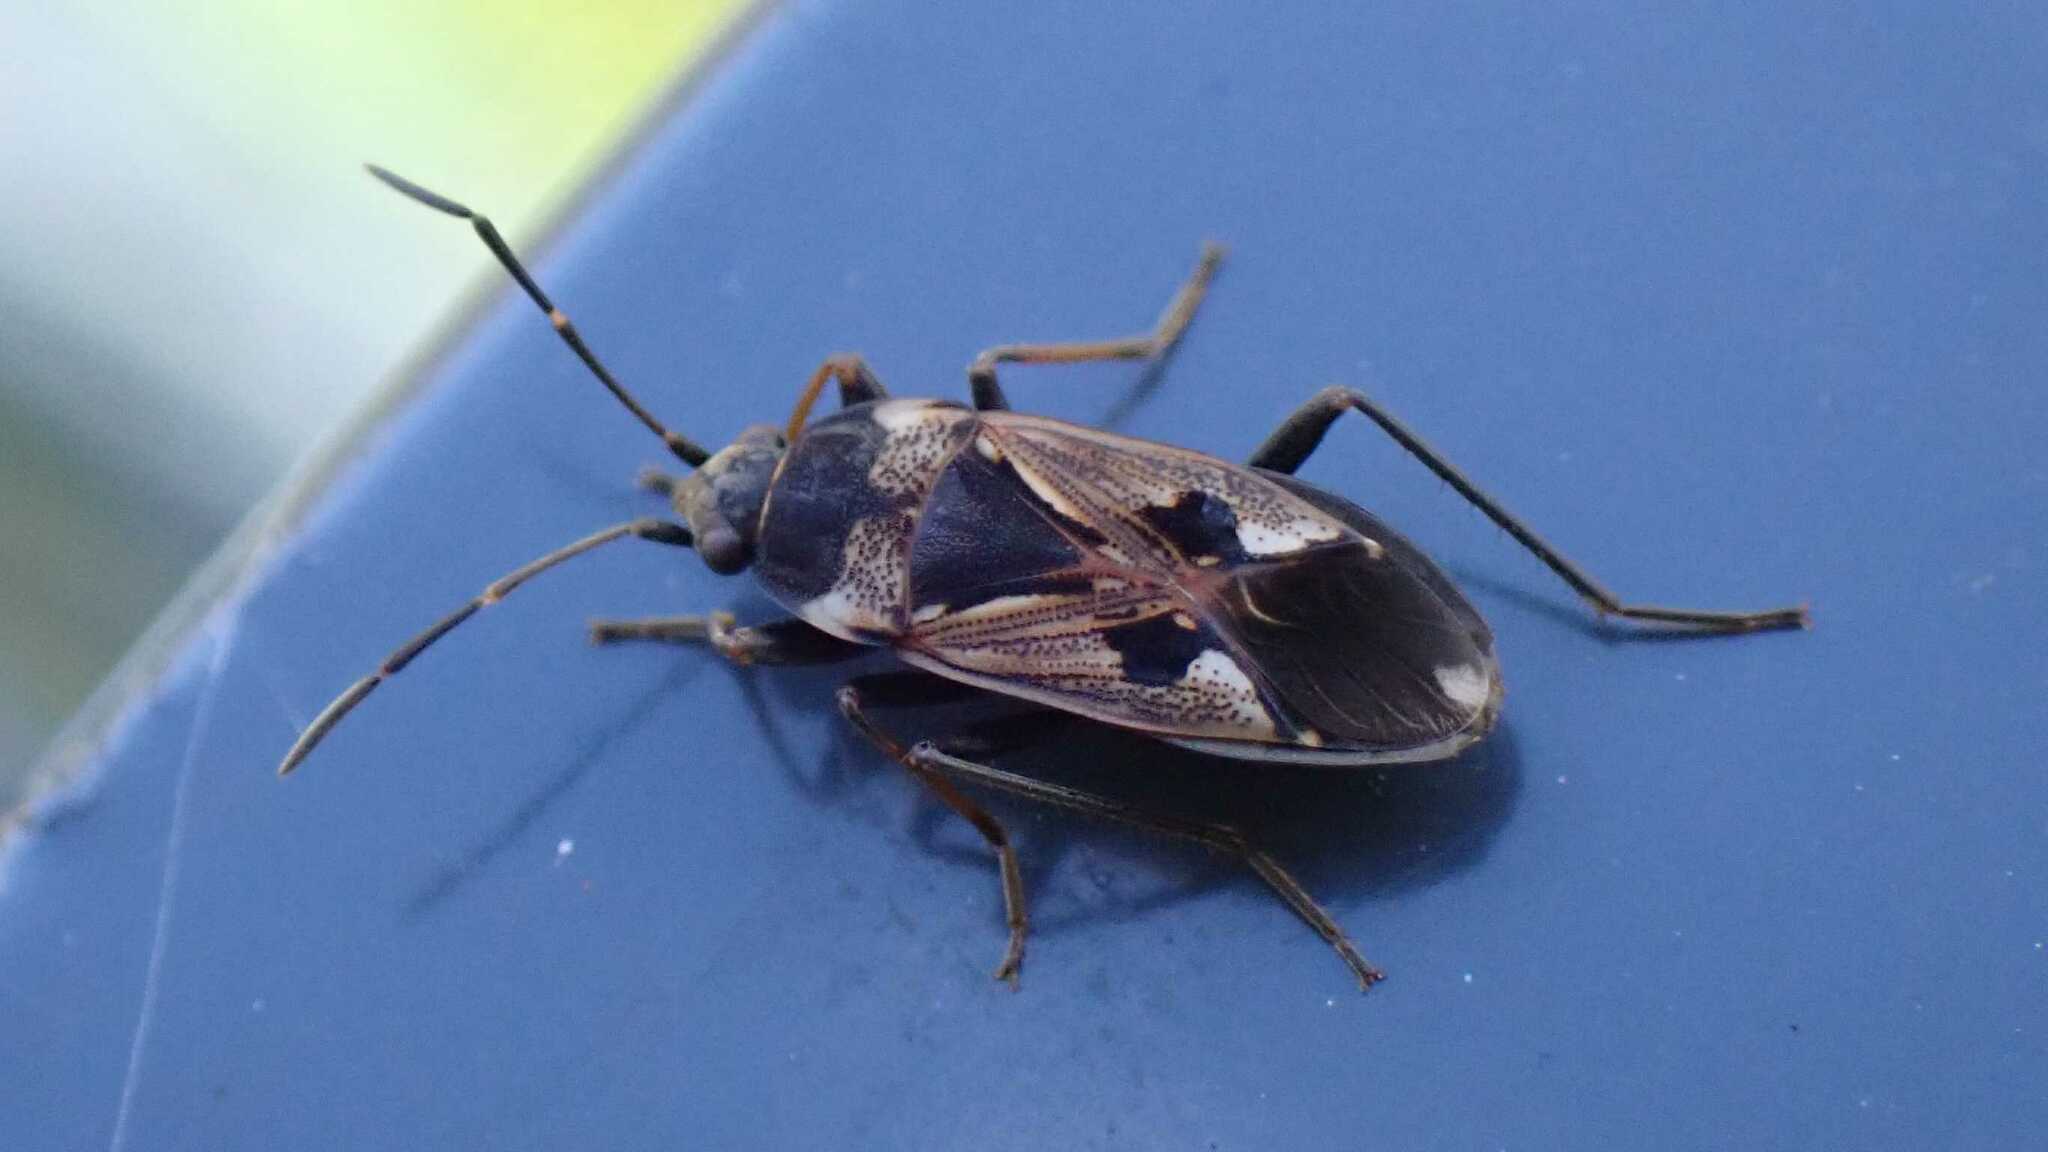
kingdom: Animalia
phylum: Arthropoda
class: Insecta
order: Hemiptera
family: Rhyparochromidae
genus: Rhyparochromus
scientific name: Rhyparochromus vulgaris
